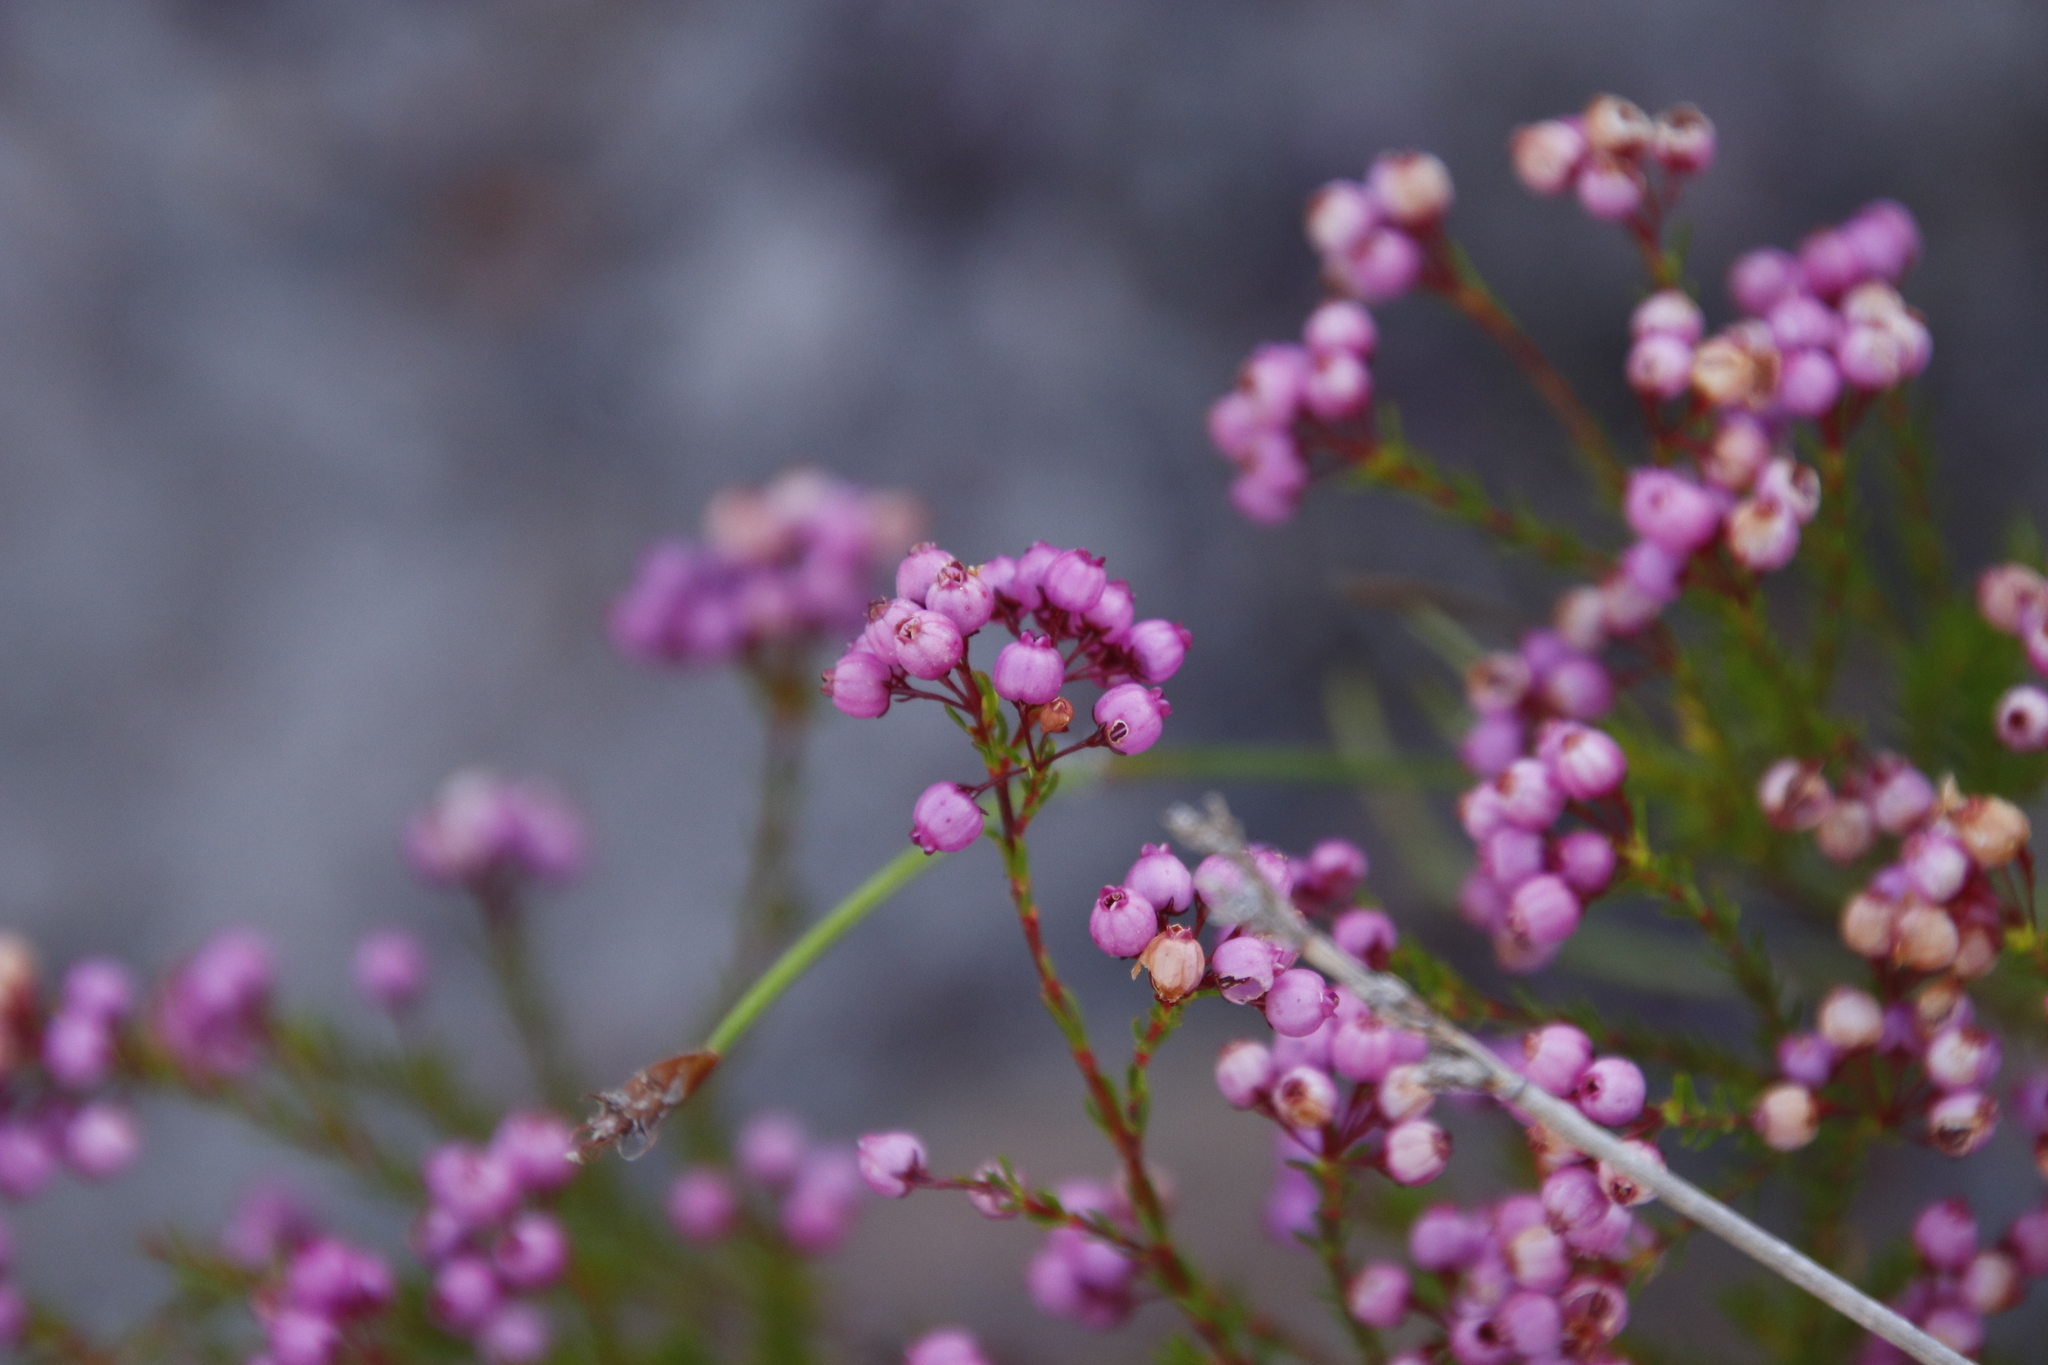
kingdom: Plantae
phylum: Tracheophyta
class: Magnoliopsida
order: Ericales
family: Ericaceae
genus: Erica
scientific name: Erica multumbellifera
